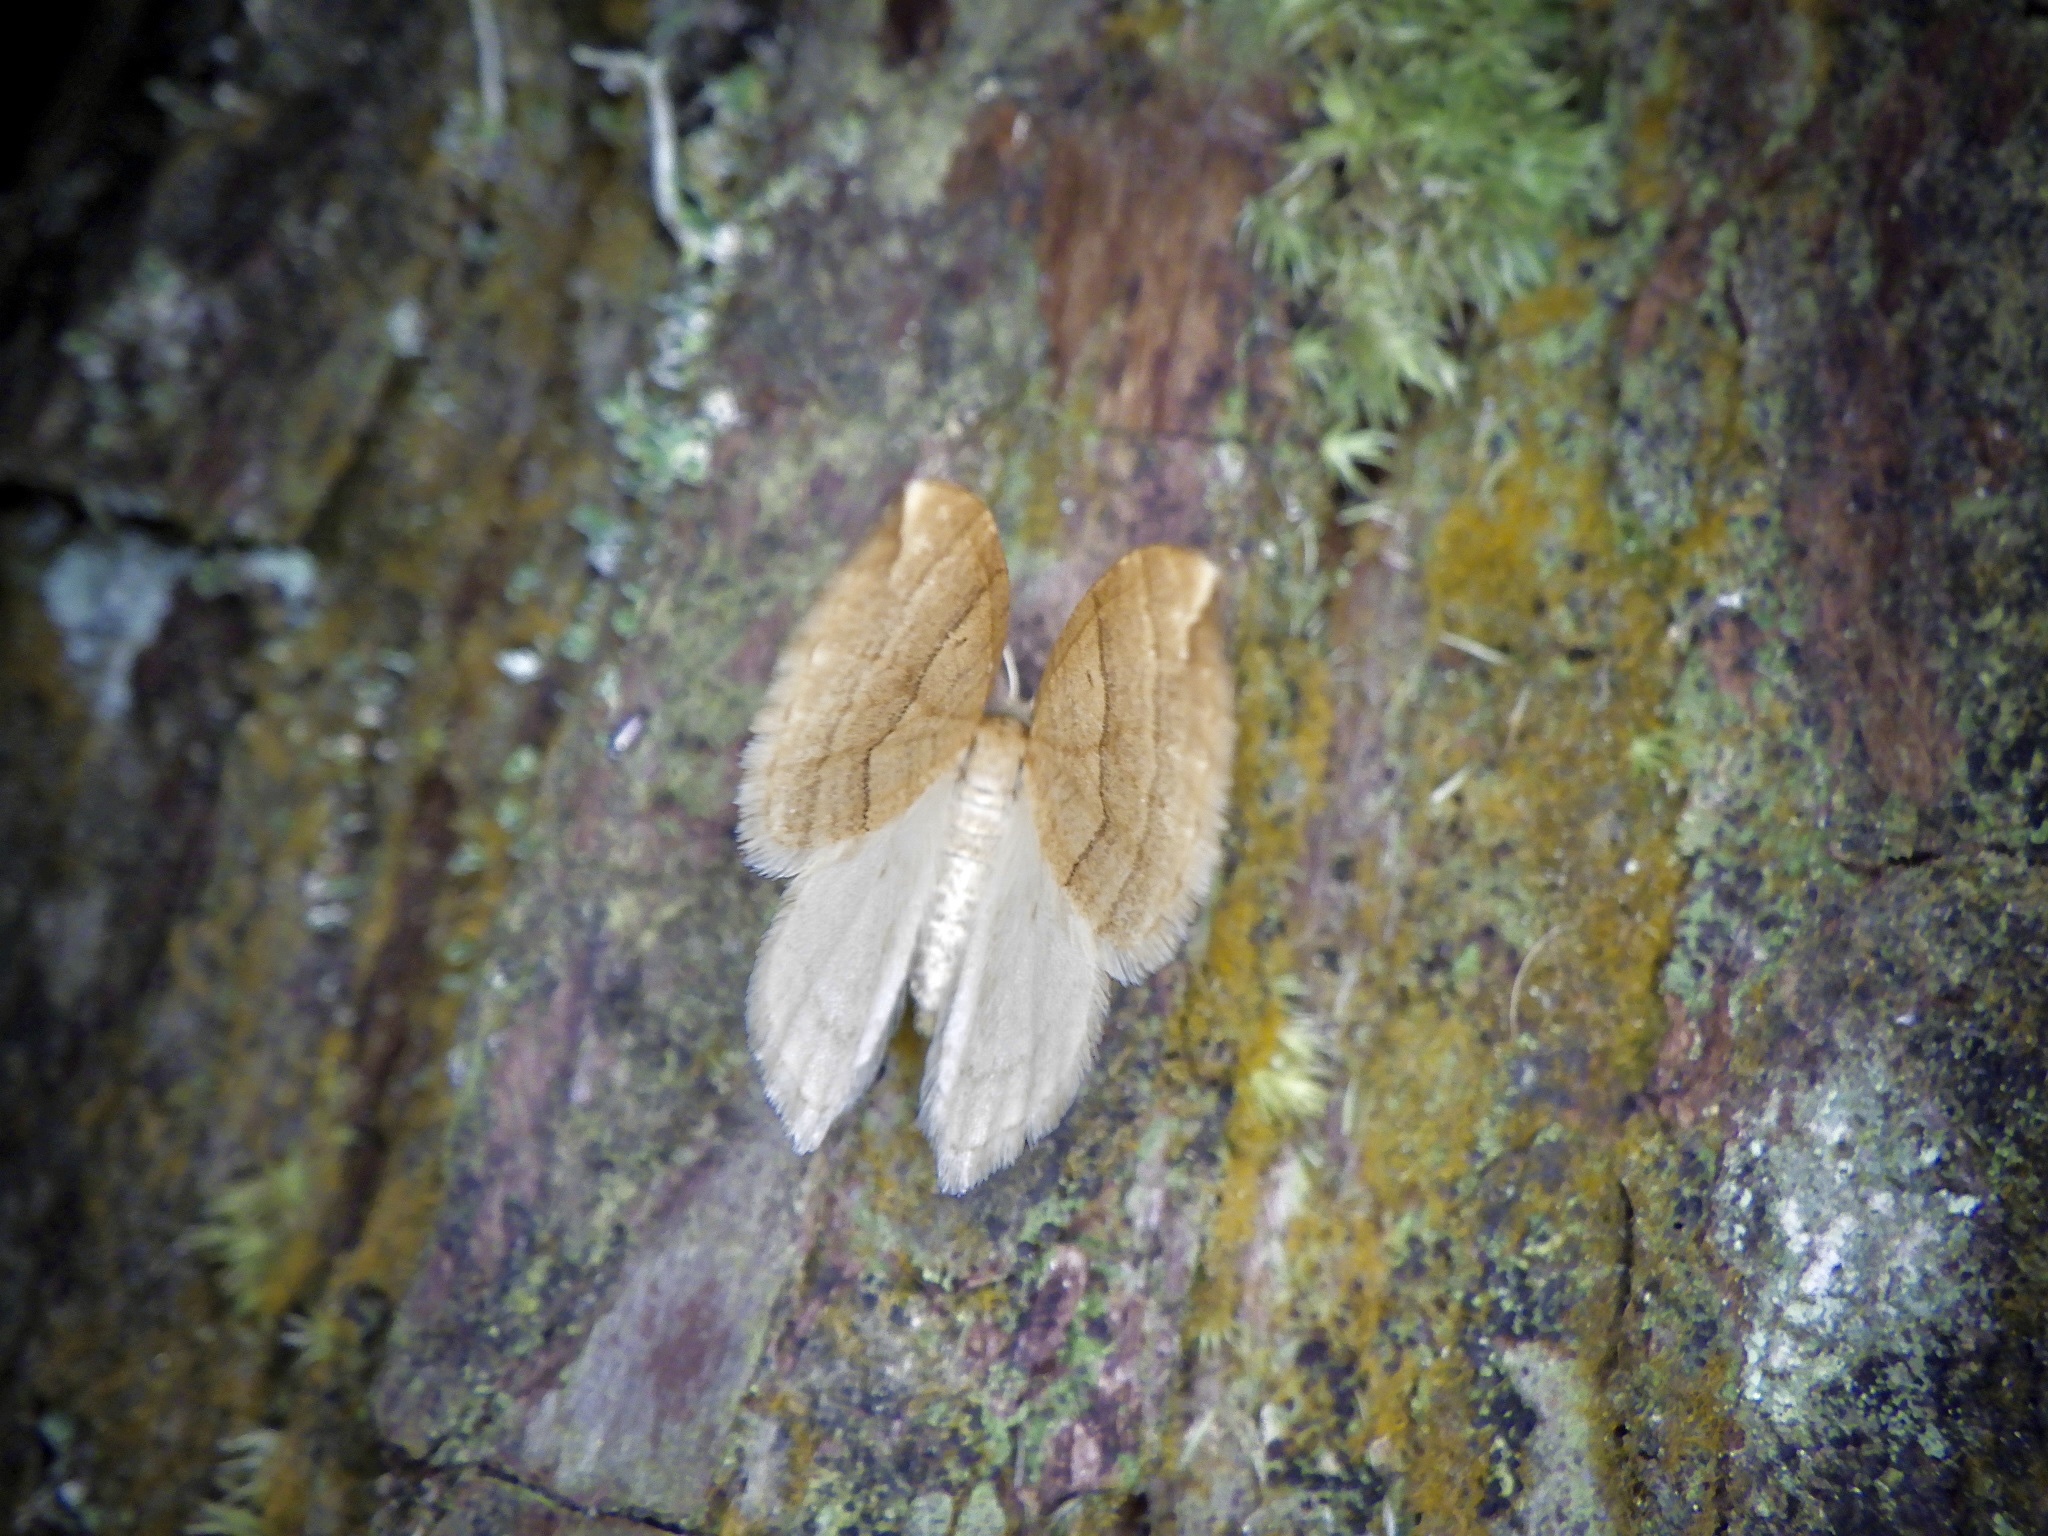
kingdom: Animalia
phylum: Arthropoda
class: Insecta
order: Lepidoptera
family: Geometridae
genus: Nothoporinia
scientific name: Nothoporinia mediolineata
